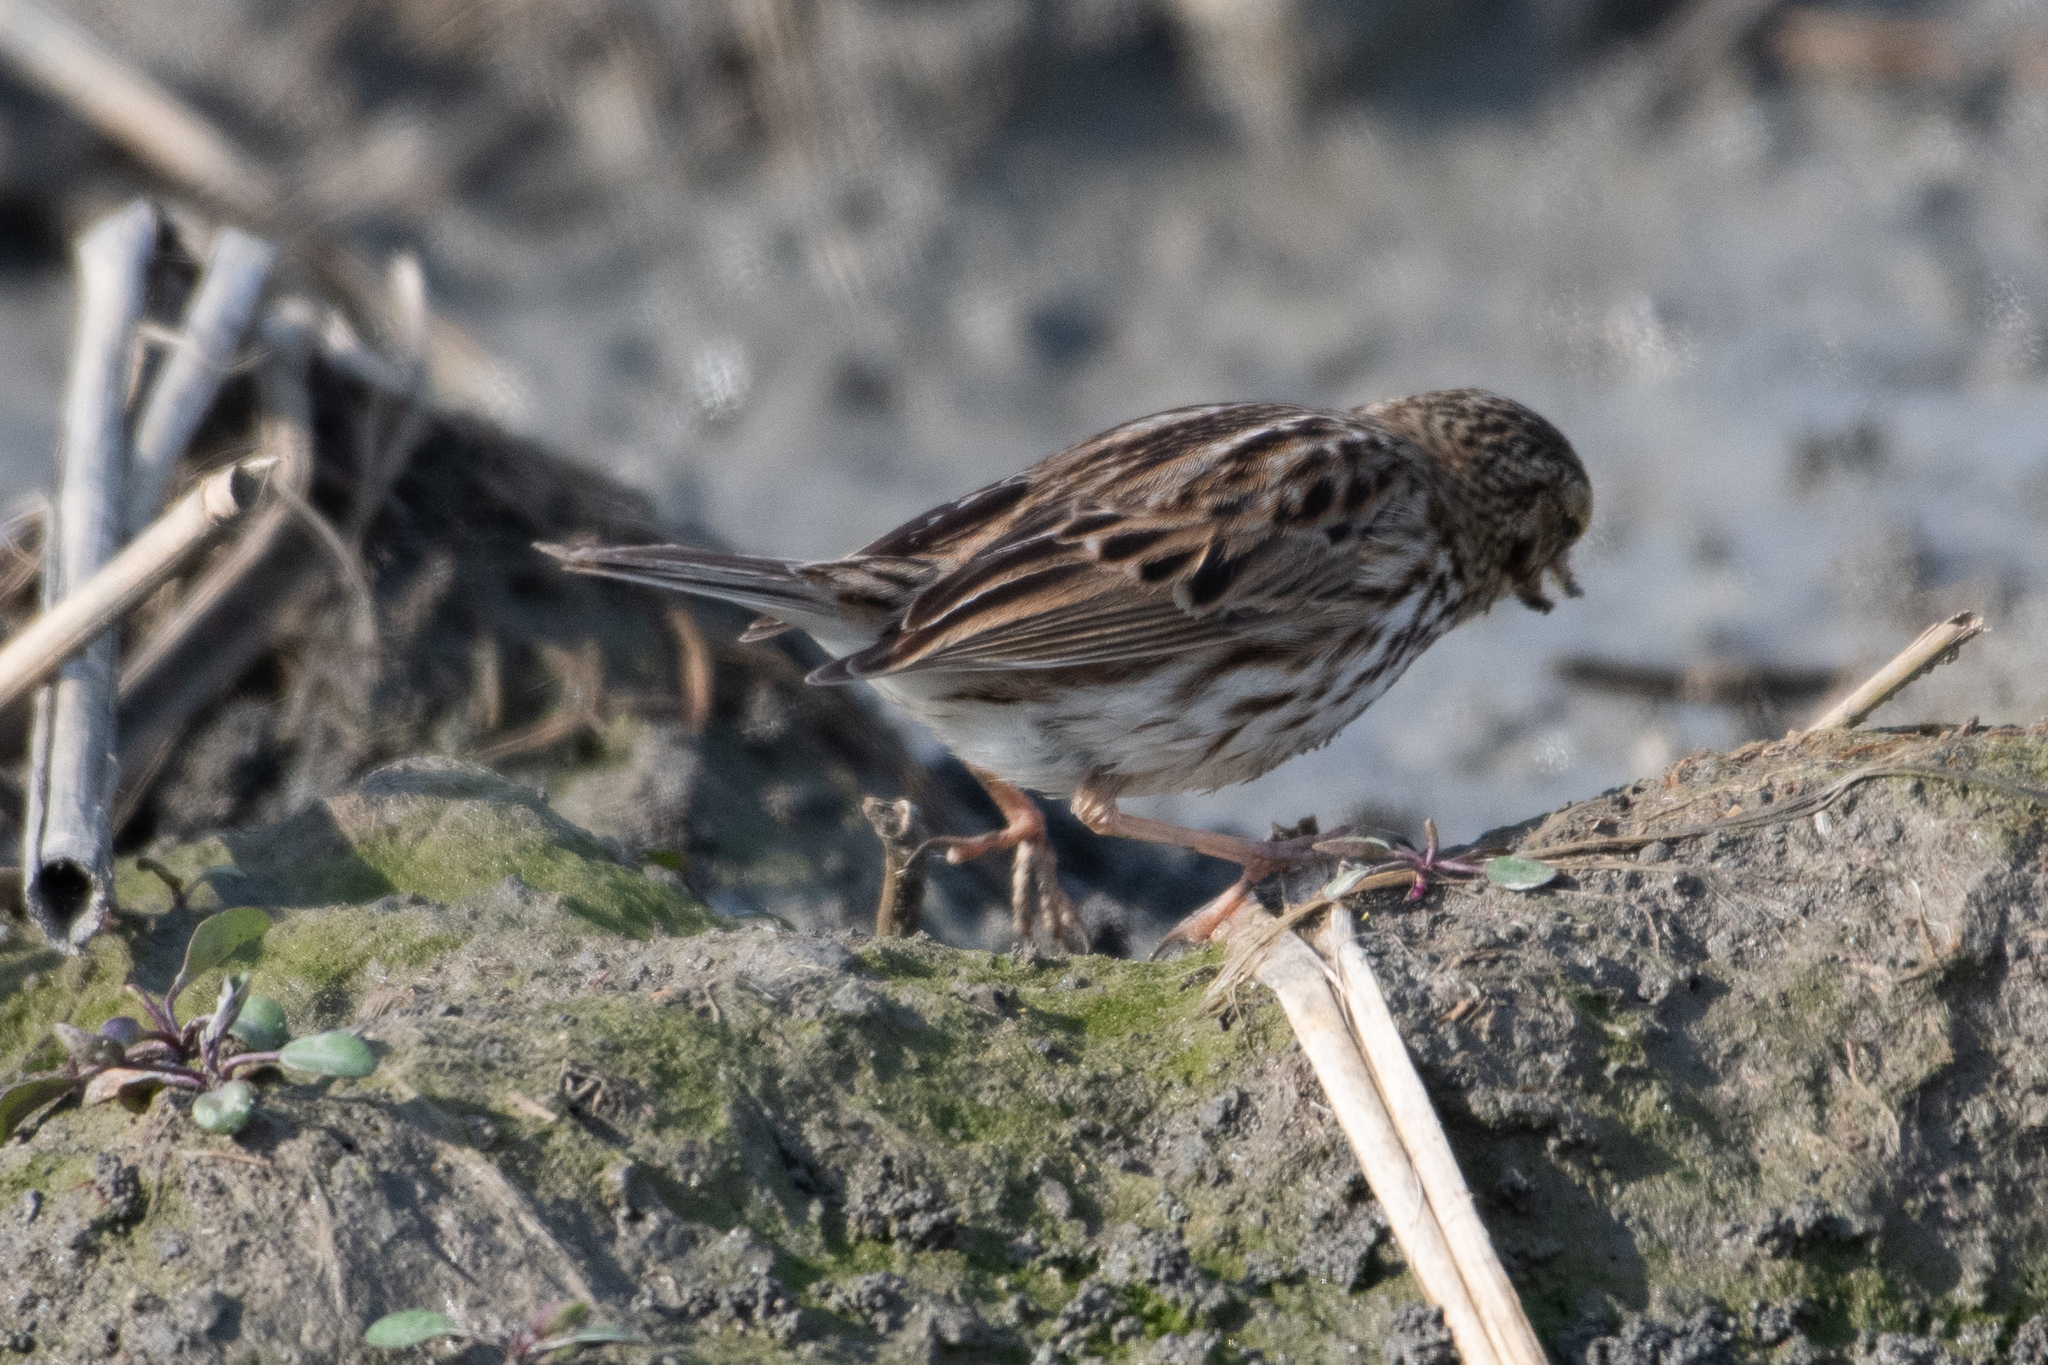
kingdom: Animalia
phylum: Chordata
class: Aves
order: Passeriformes
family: Passerellidae
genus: Passerculus
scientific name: Passerculus sandwichensis
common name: Savannah sparrow
